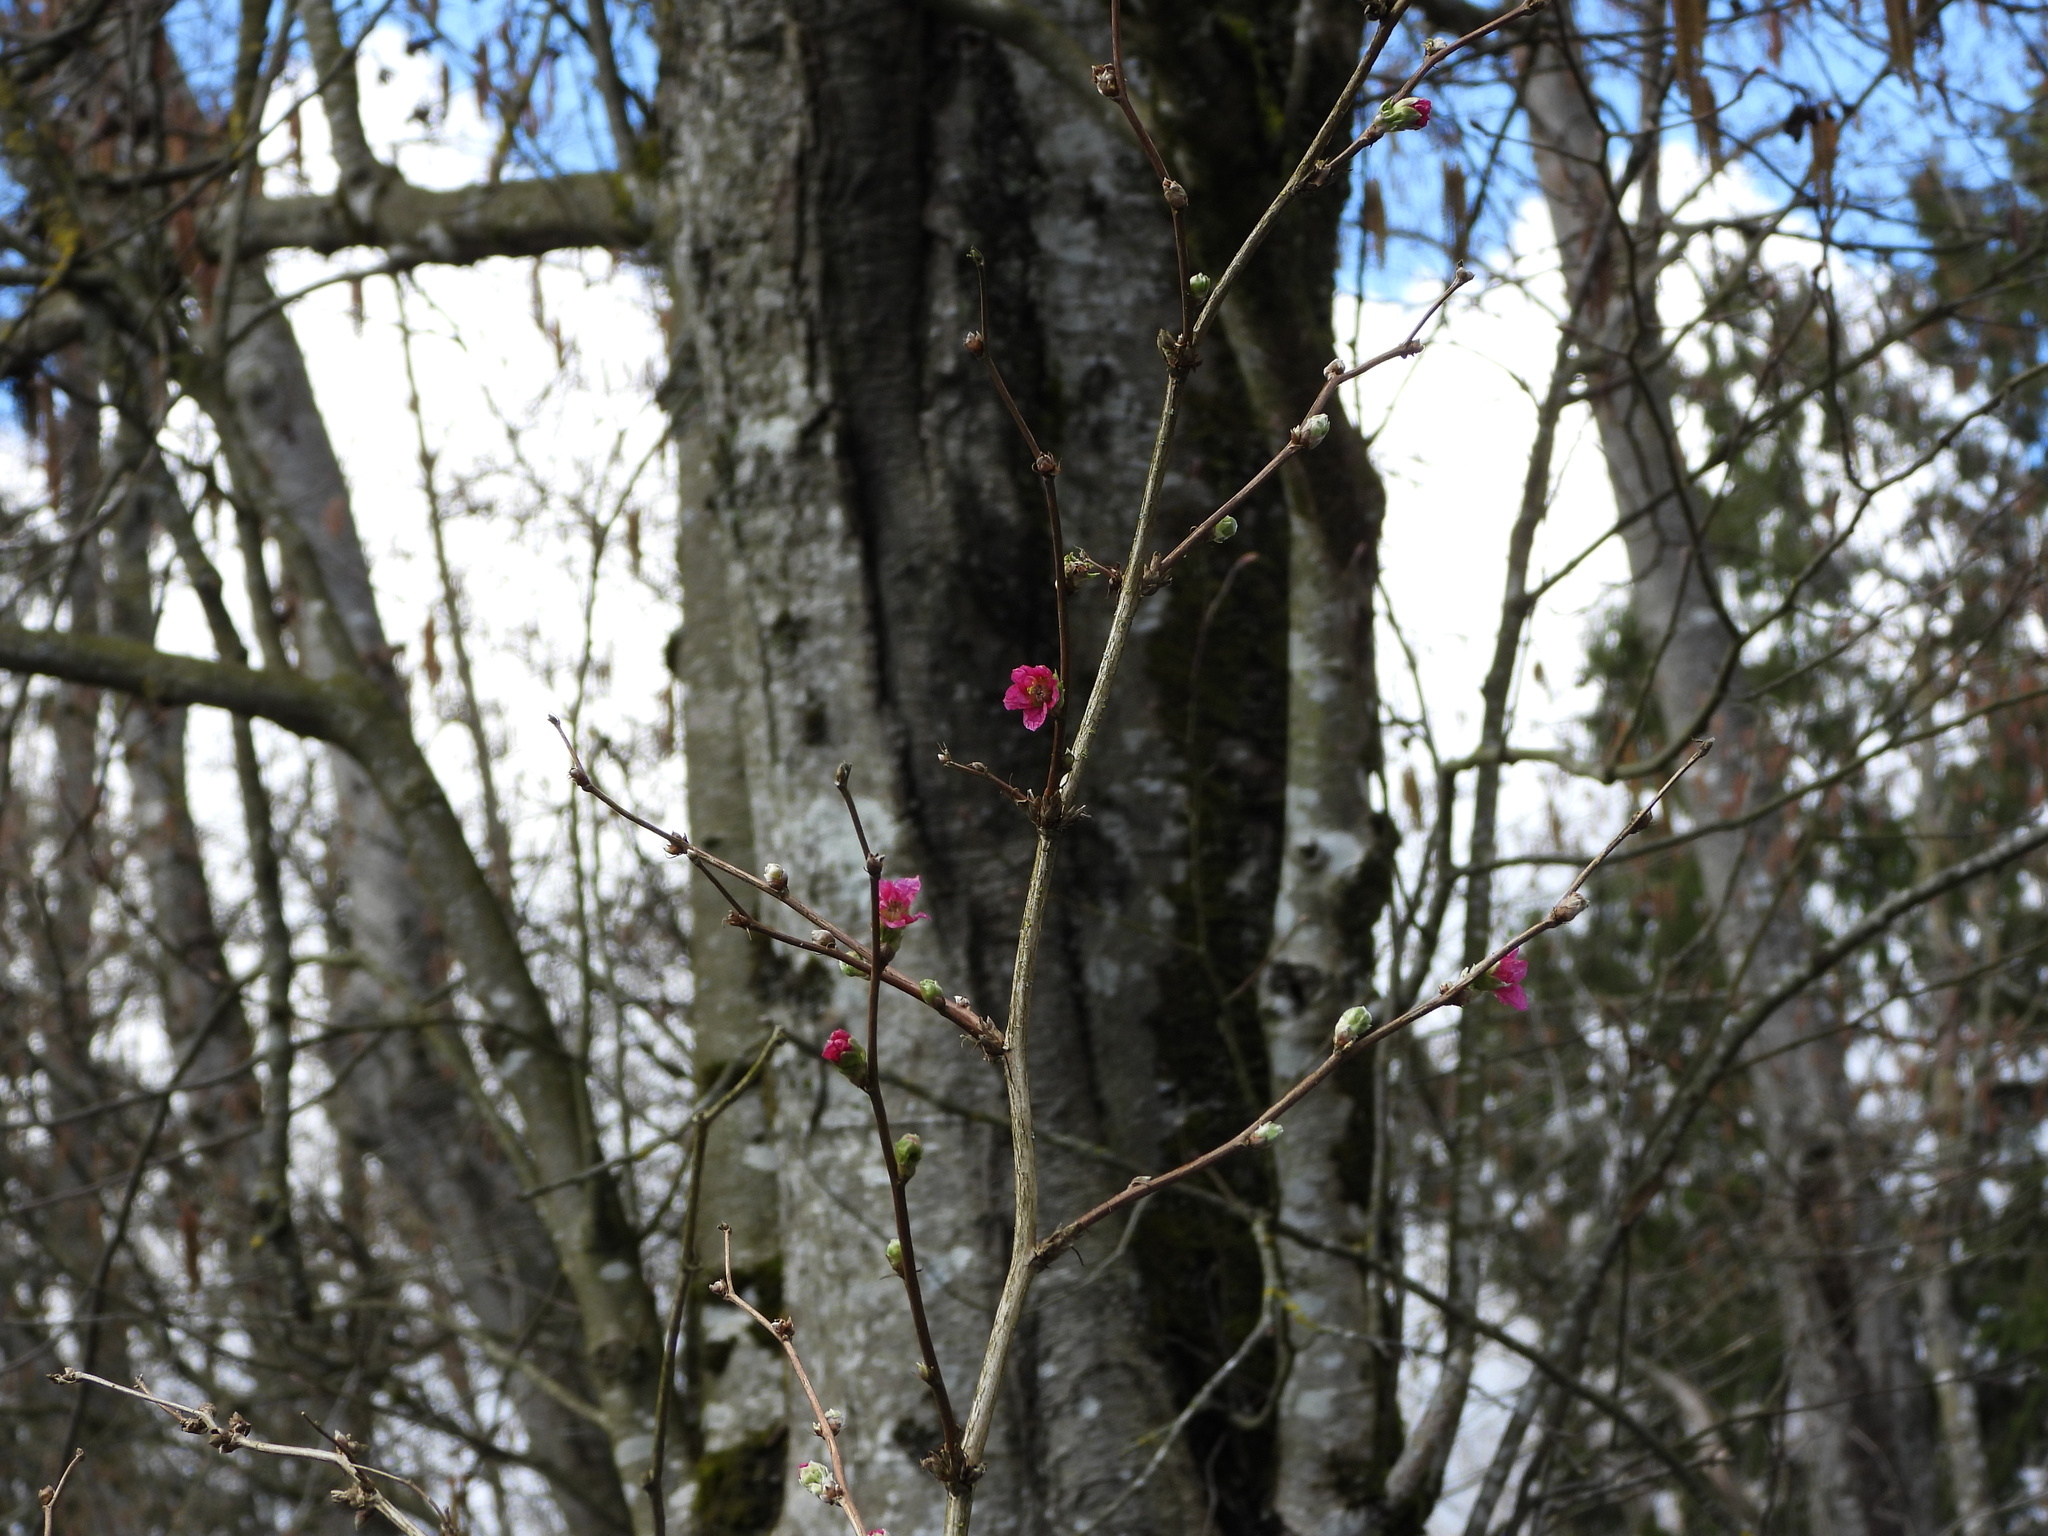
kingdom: Plantae
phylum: Tracheophyta
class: Magnoliopsida
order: Rosales
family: Rosaceae
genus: Rubus
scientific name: Rubus spectabilis
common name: Salmonberry
